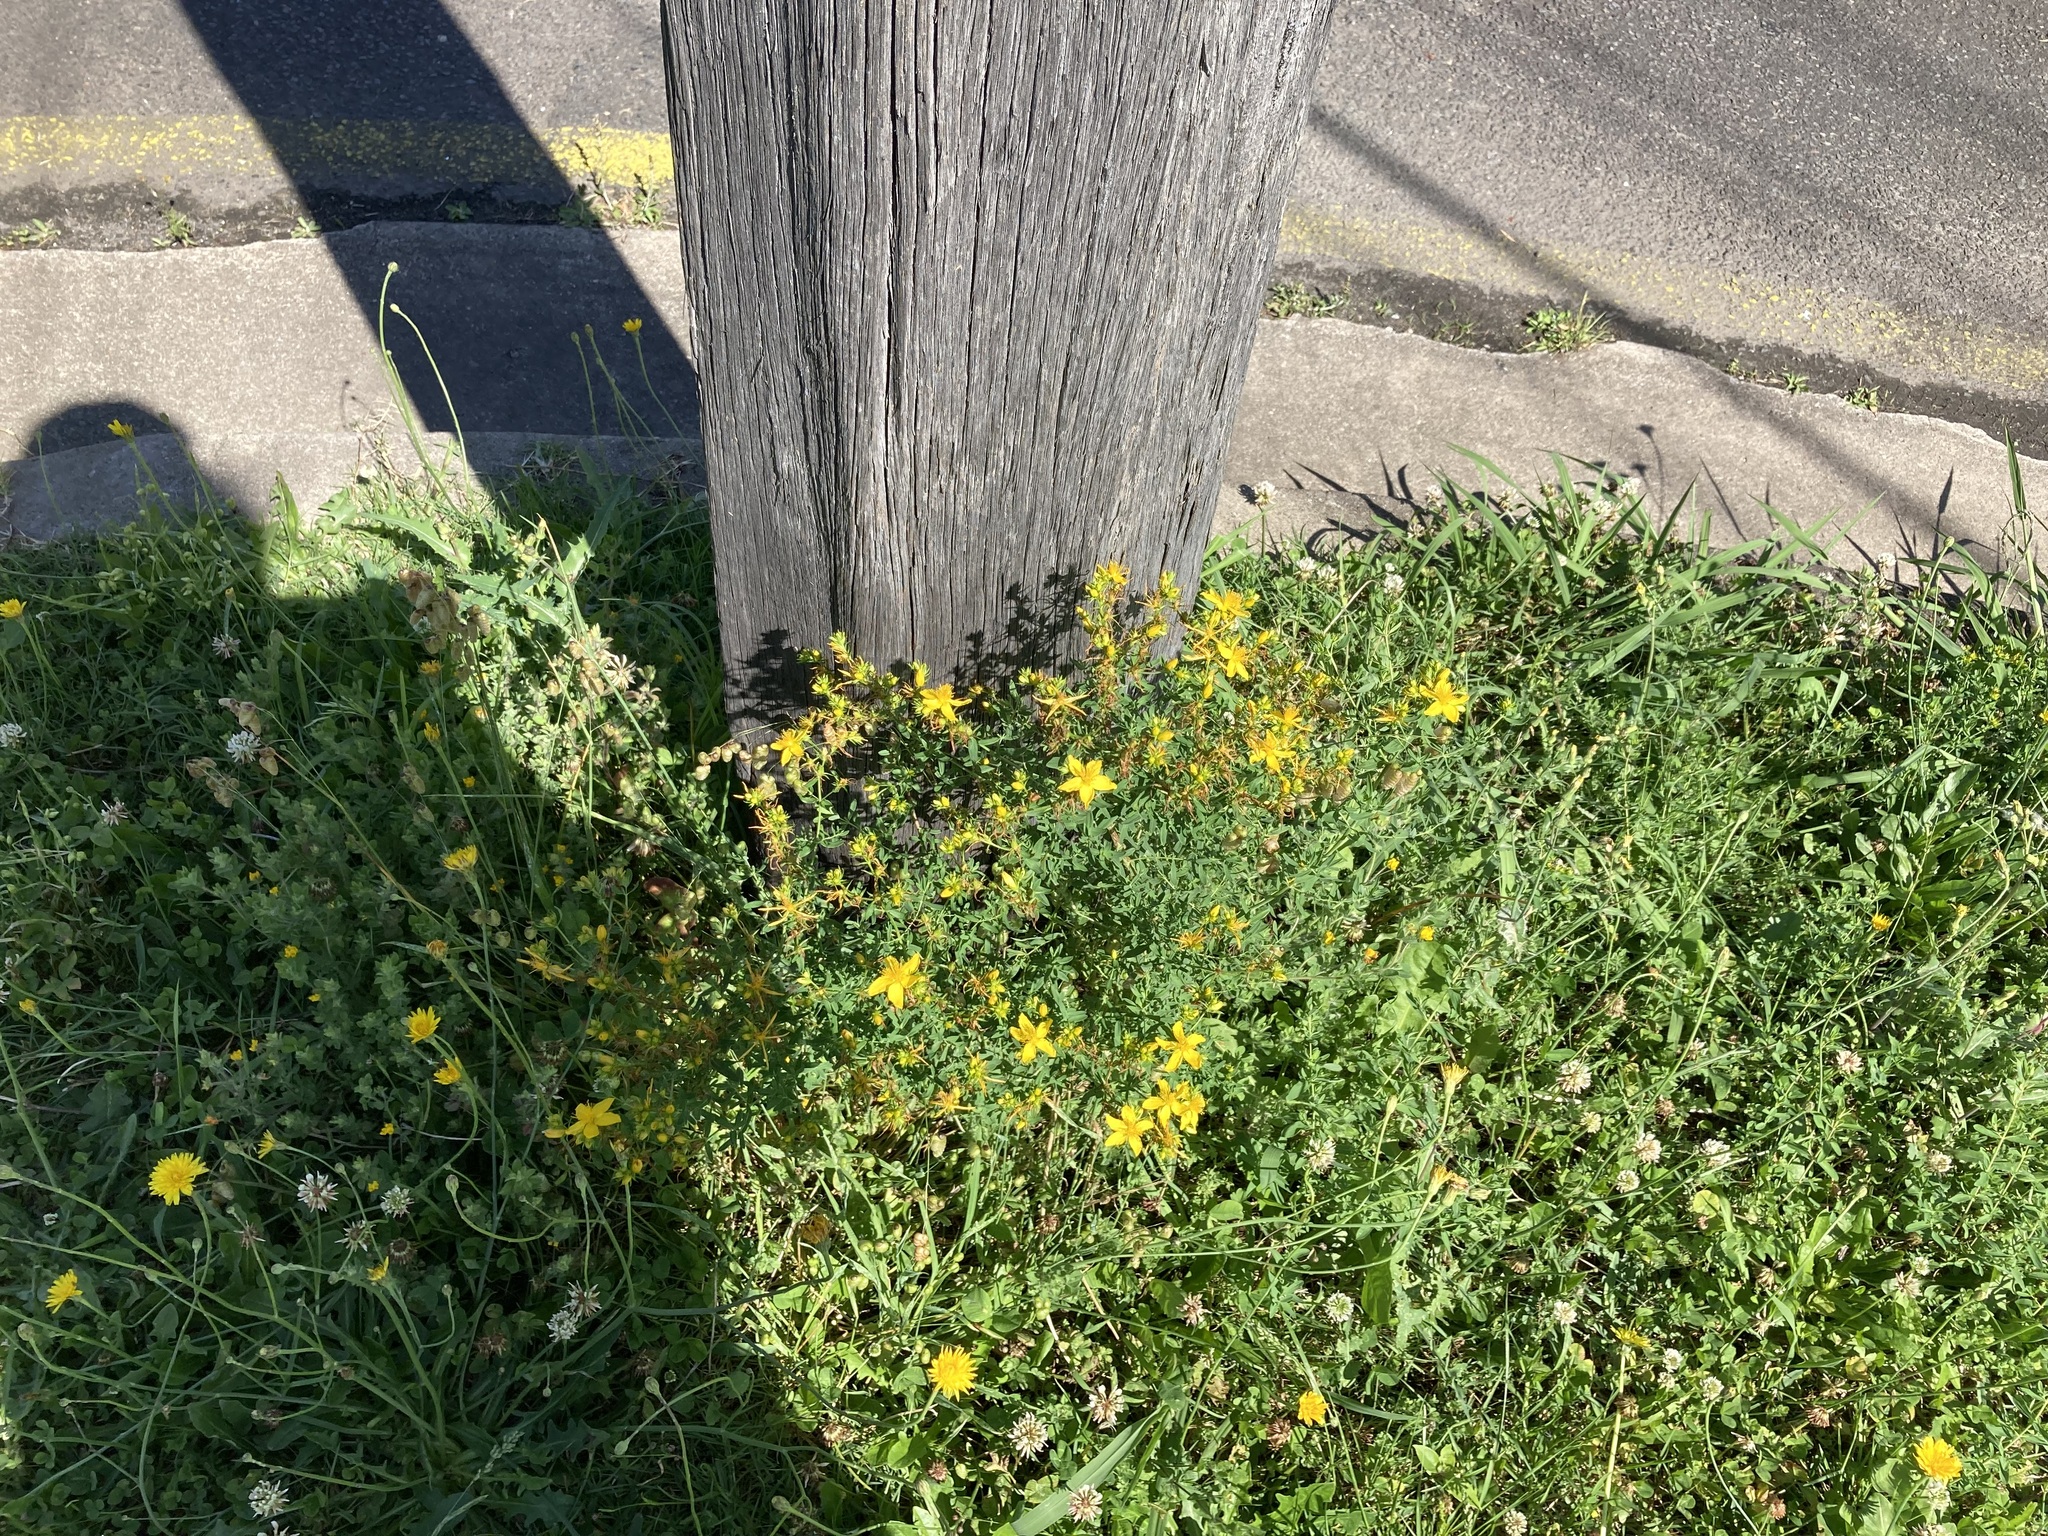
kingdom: Plantae
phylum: Tracheophyta
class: Magnoliopsida
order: Malpighiales
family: Hypericaceae
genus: Hypericum
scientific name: Hypericum perforatum
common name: Common st. johnswort
